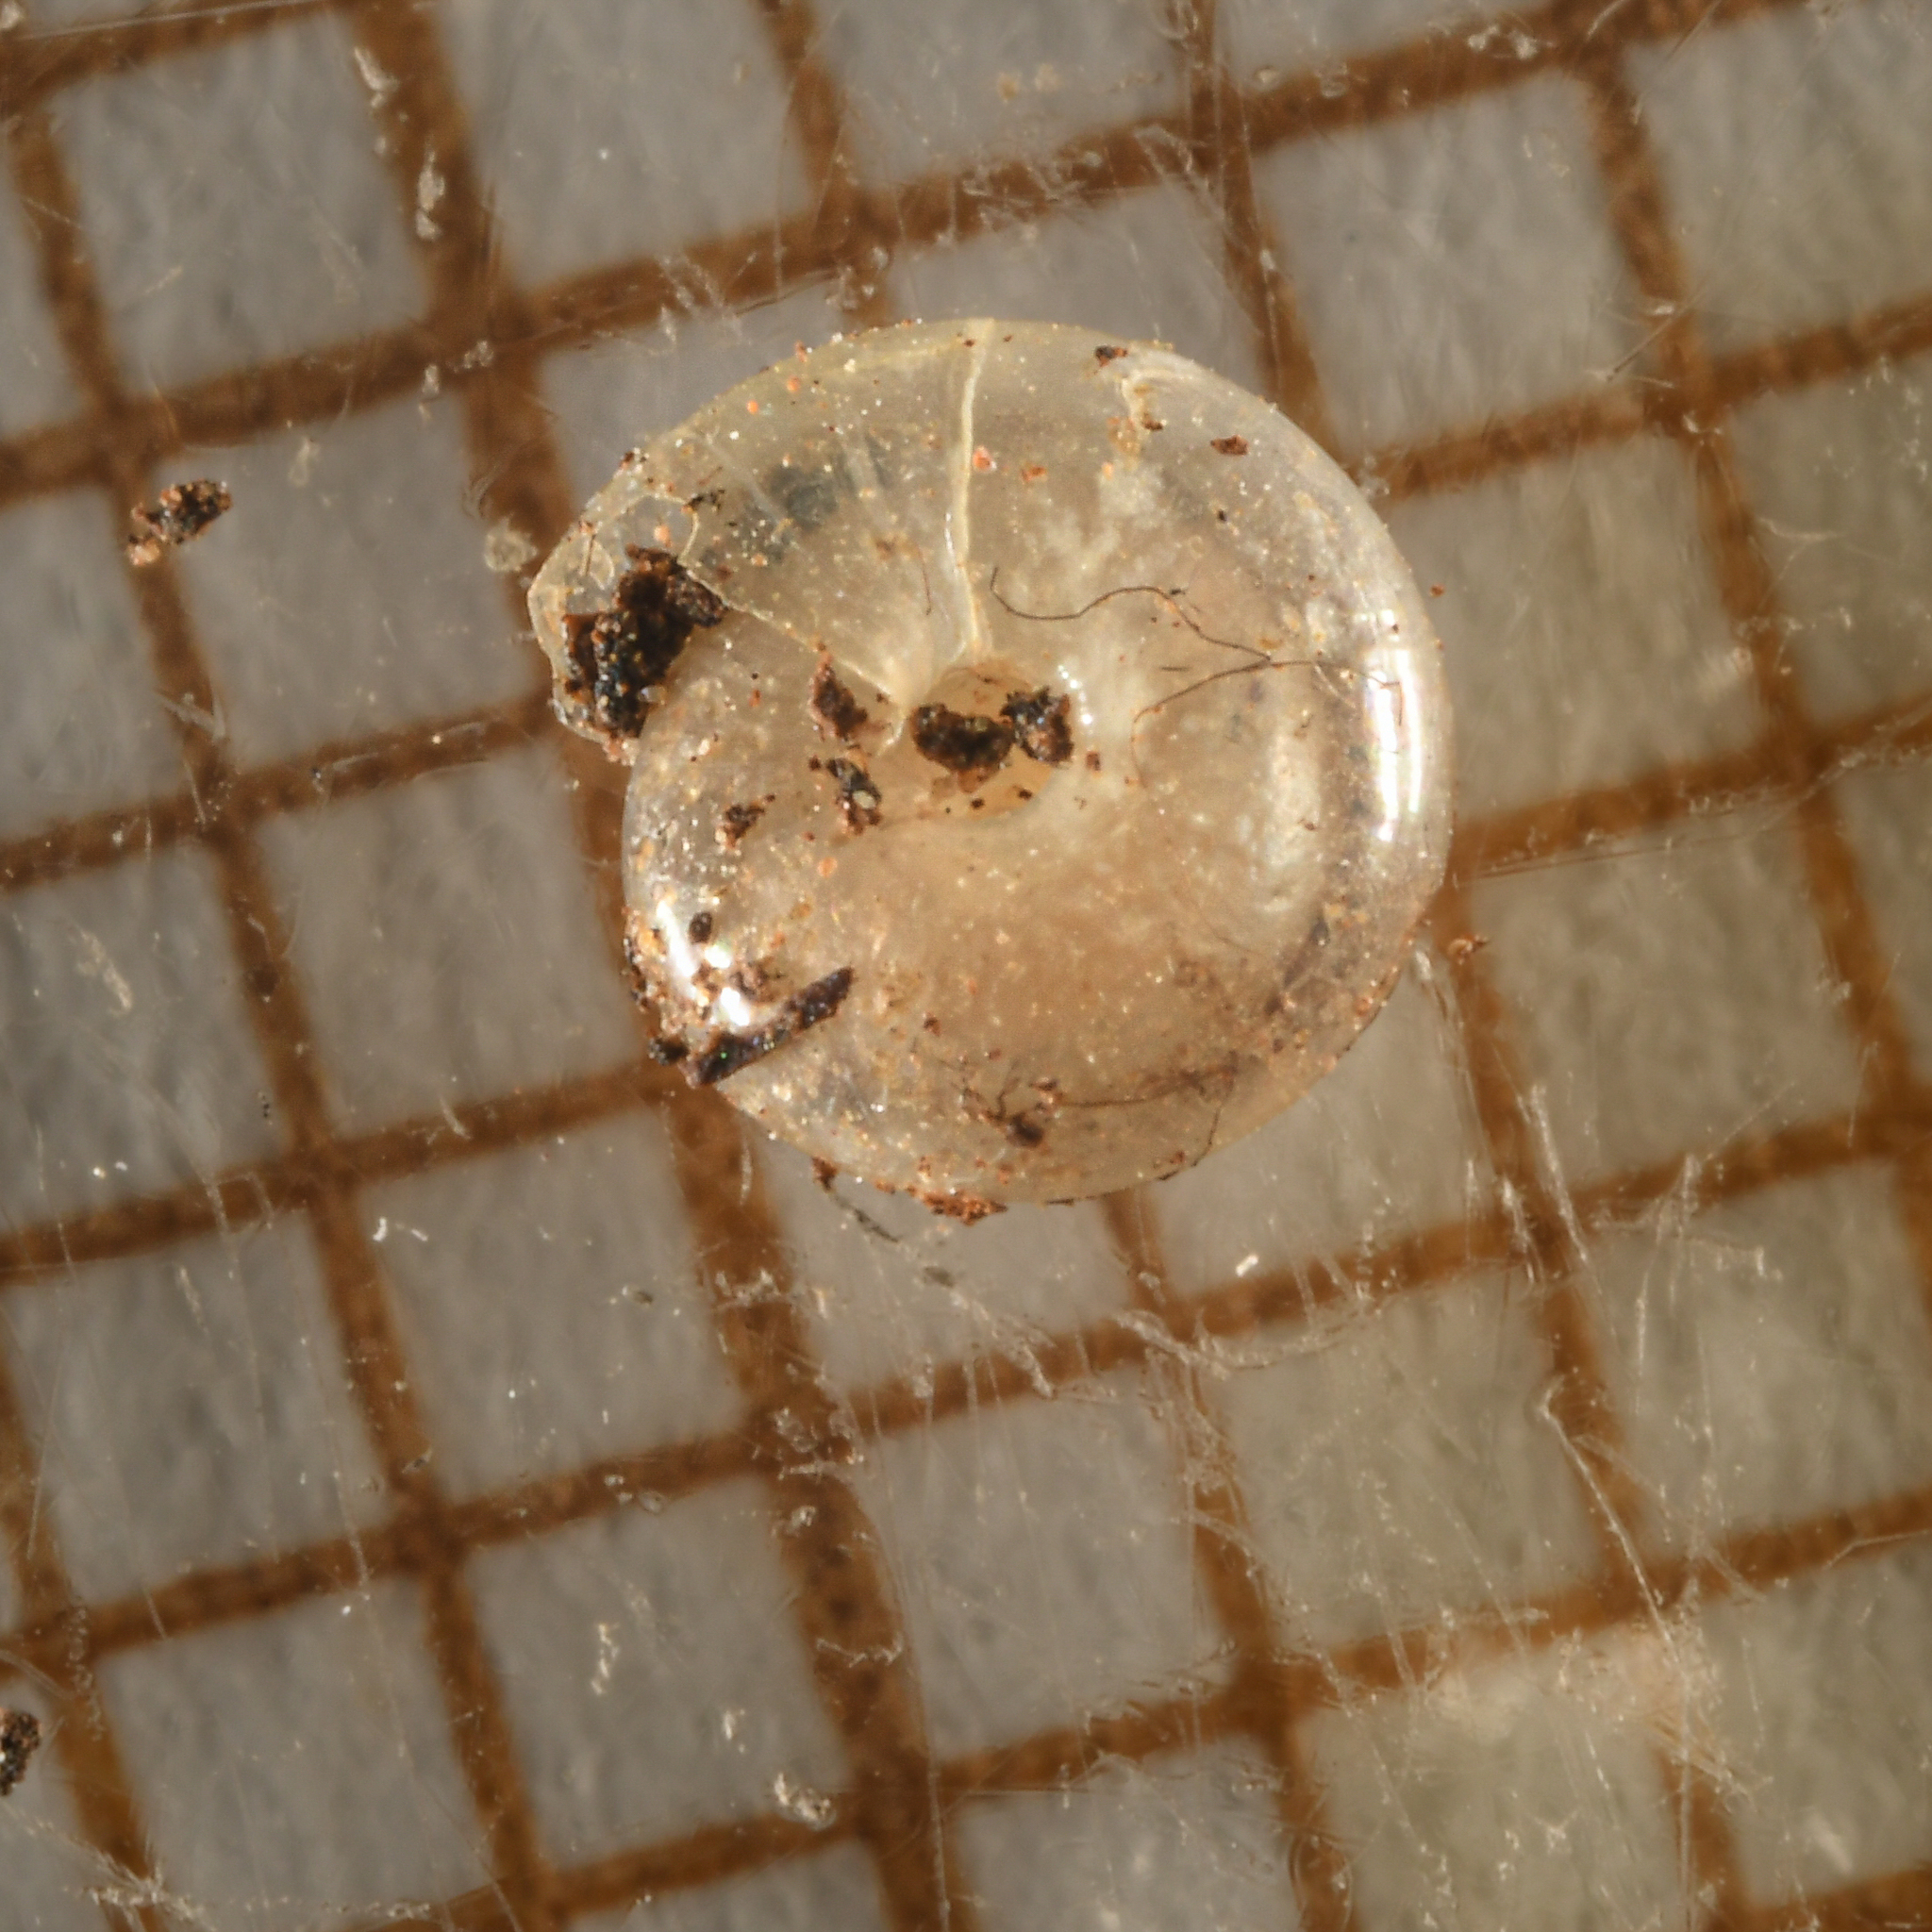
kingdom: Animalia
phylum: Mollusca
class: Gastropoda
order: Stylommatophora
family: Pristilomatidae
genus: Vitrea
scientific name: Vitrea contracta
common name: Milky crystal snail
